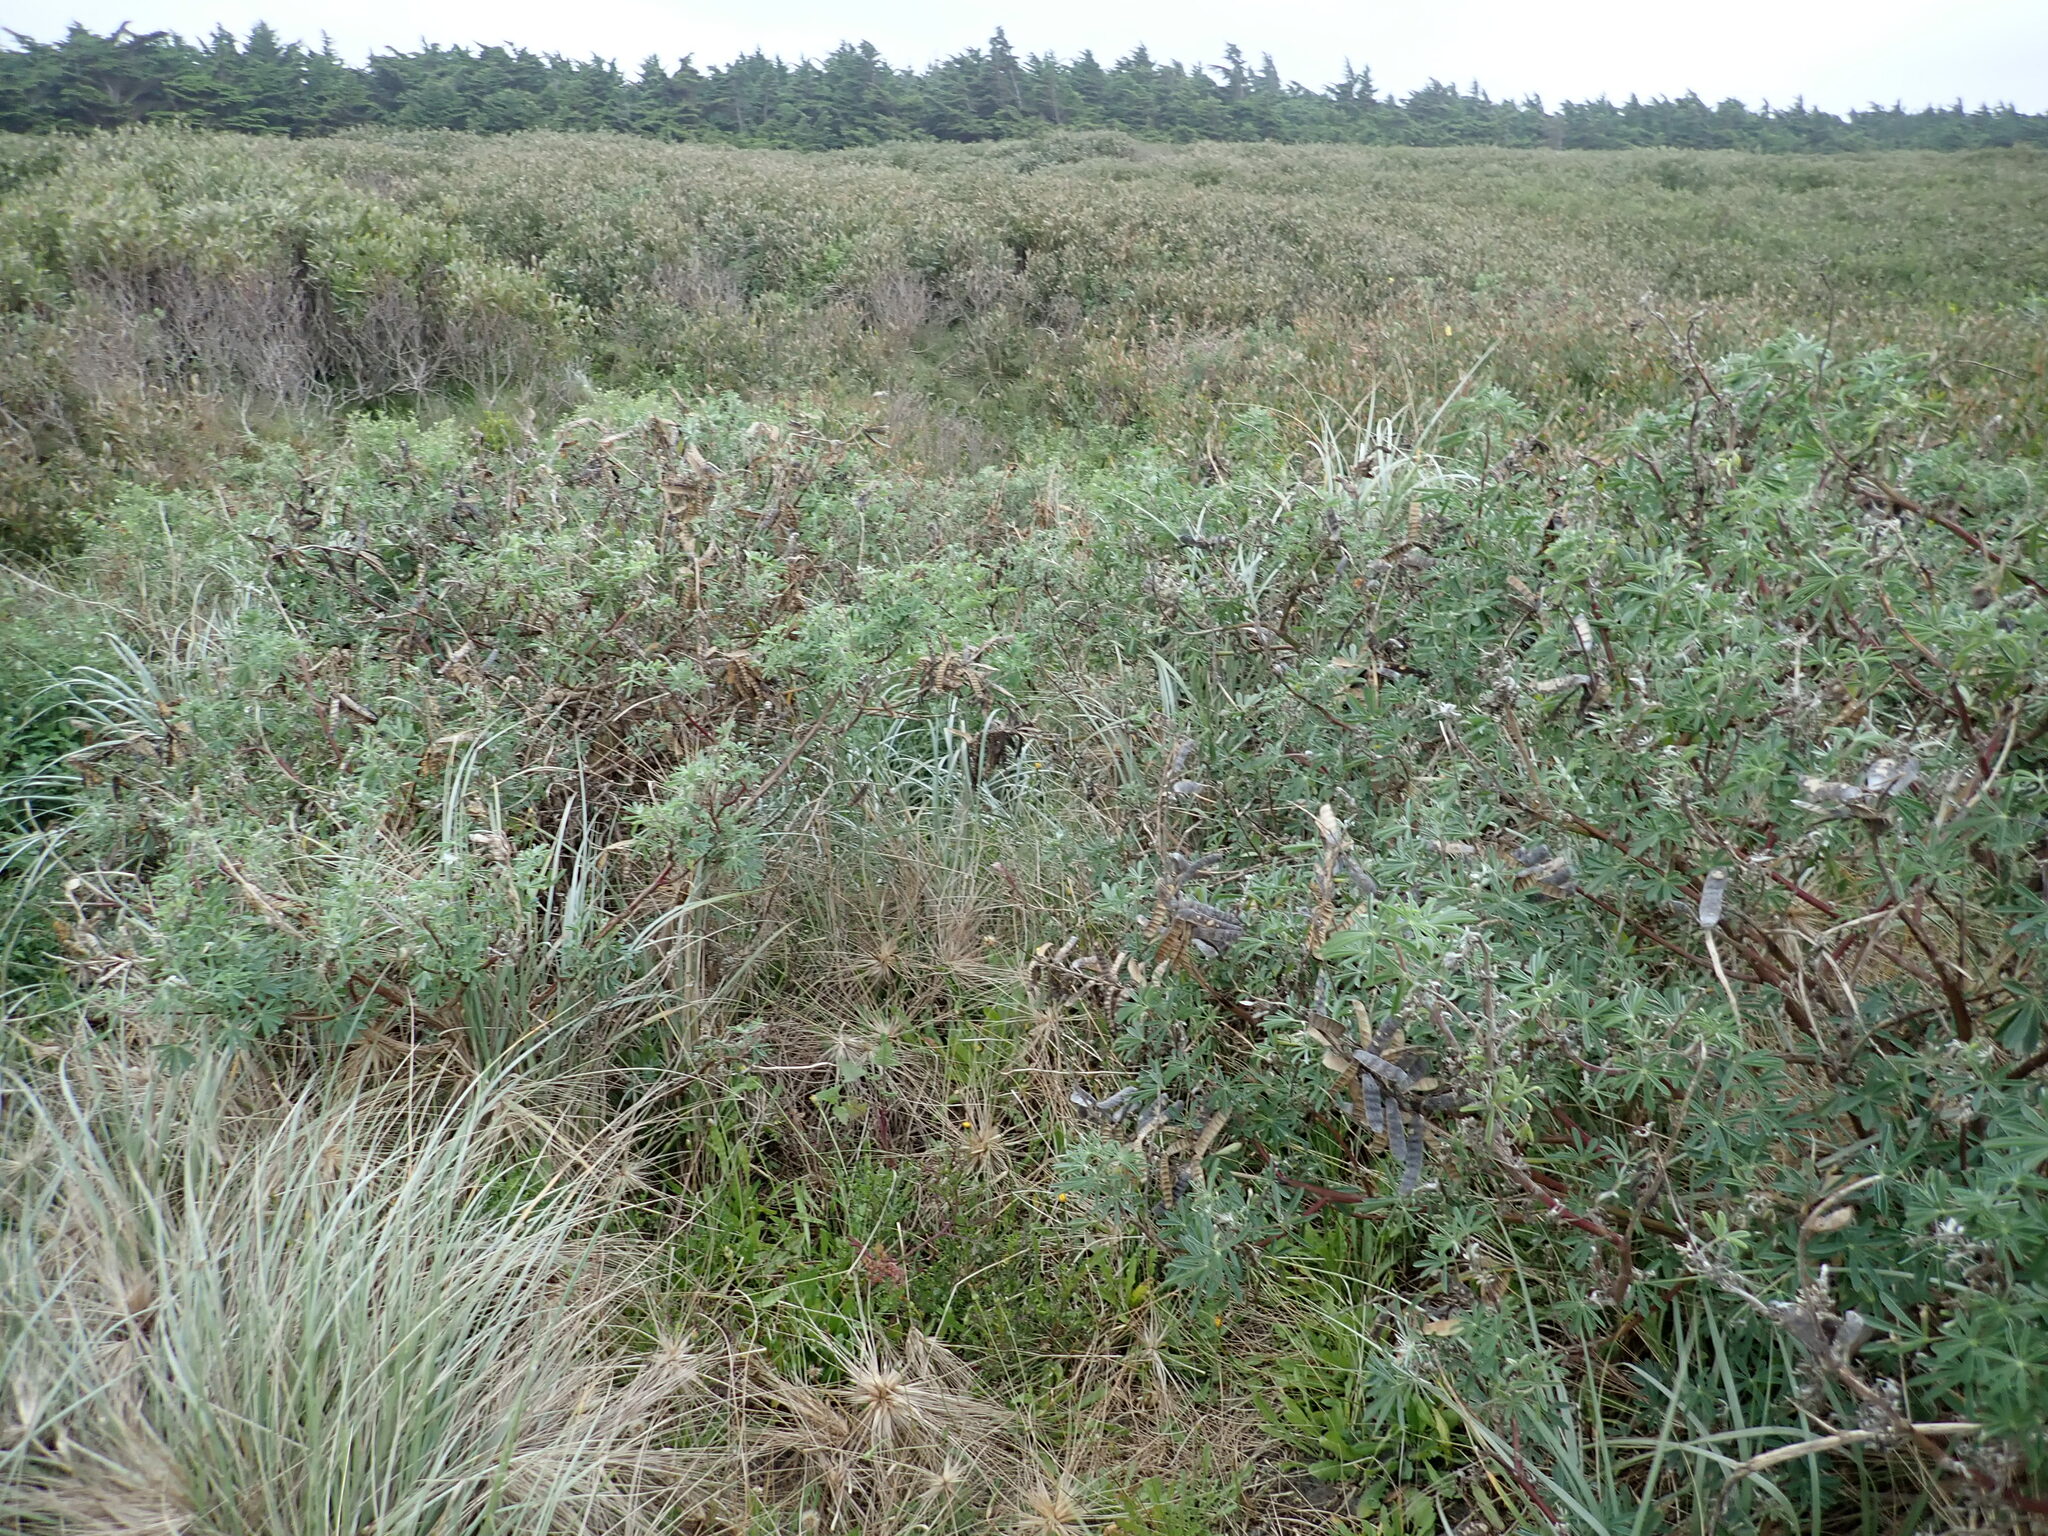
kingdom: Plantae
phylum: Tracheophyta
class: Magnoliopsida
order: Fabales
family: Fabaceae
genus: Lupinus
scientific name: Lupinus arboreus
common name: Yellow bush lupine
